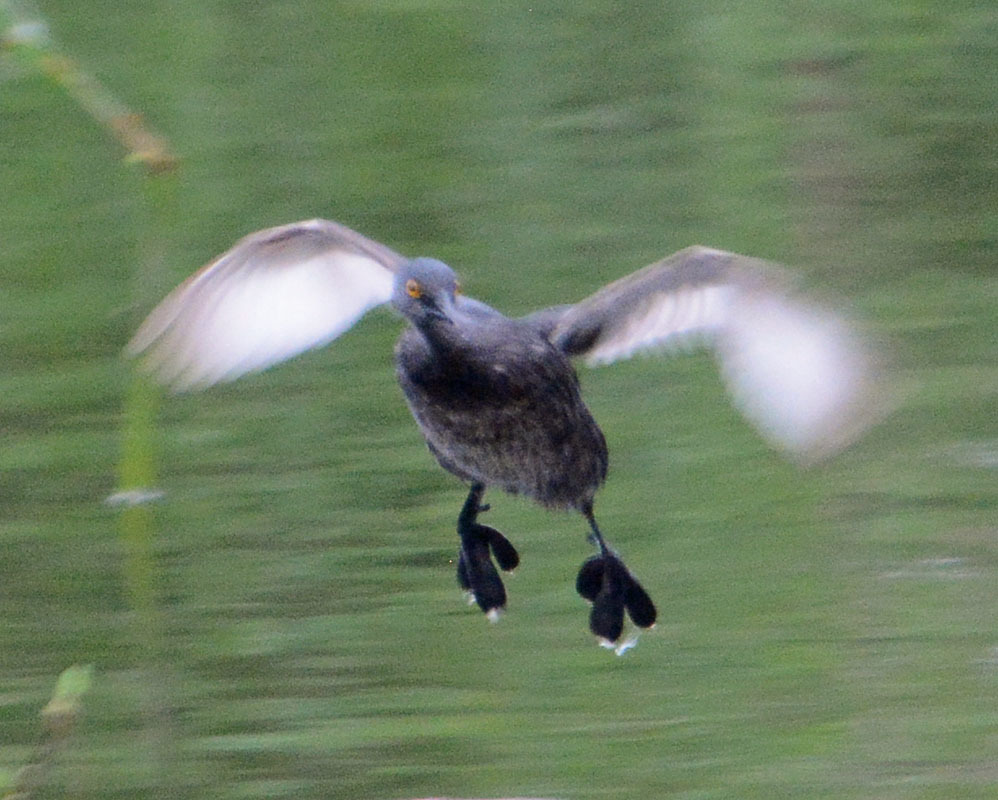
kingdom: Animalia
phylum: Chordata
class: Aves
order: Podicipediformes
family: Podicipedidae
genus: Tachybaptus
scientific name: Tachybaptus dominicus
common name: Least grebe
